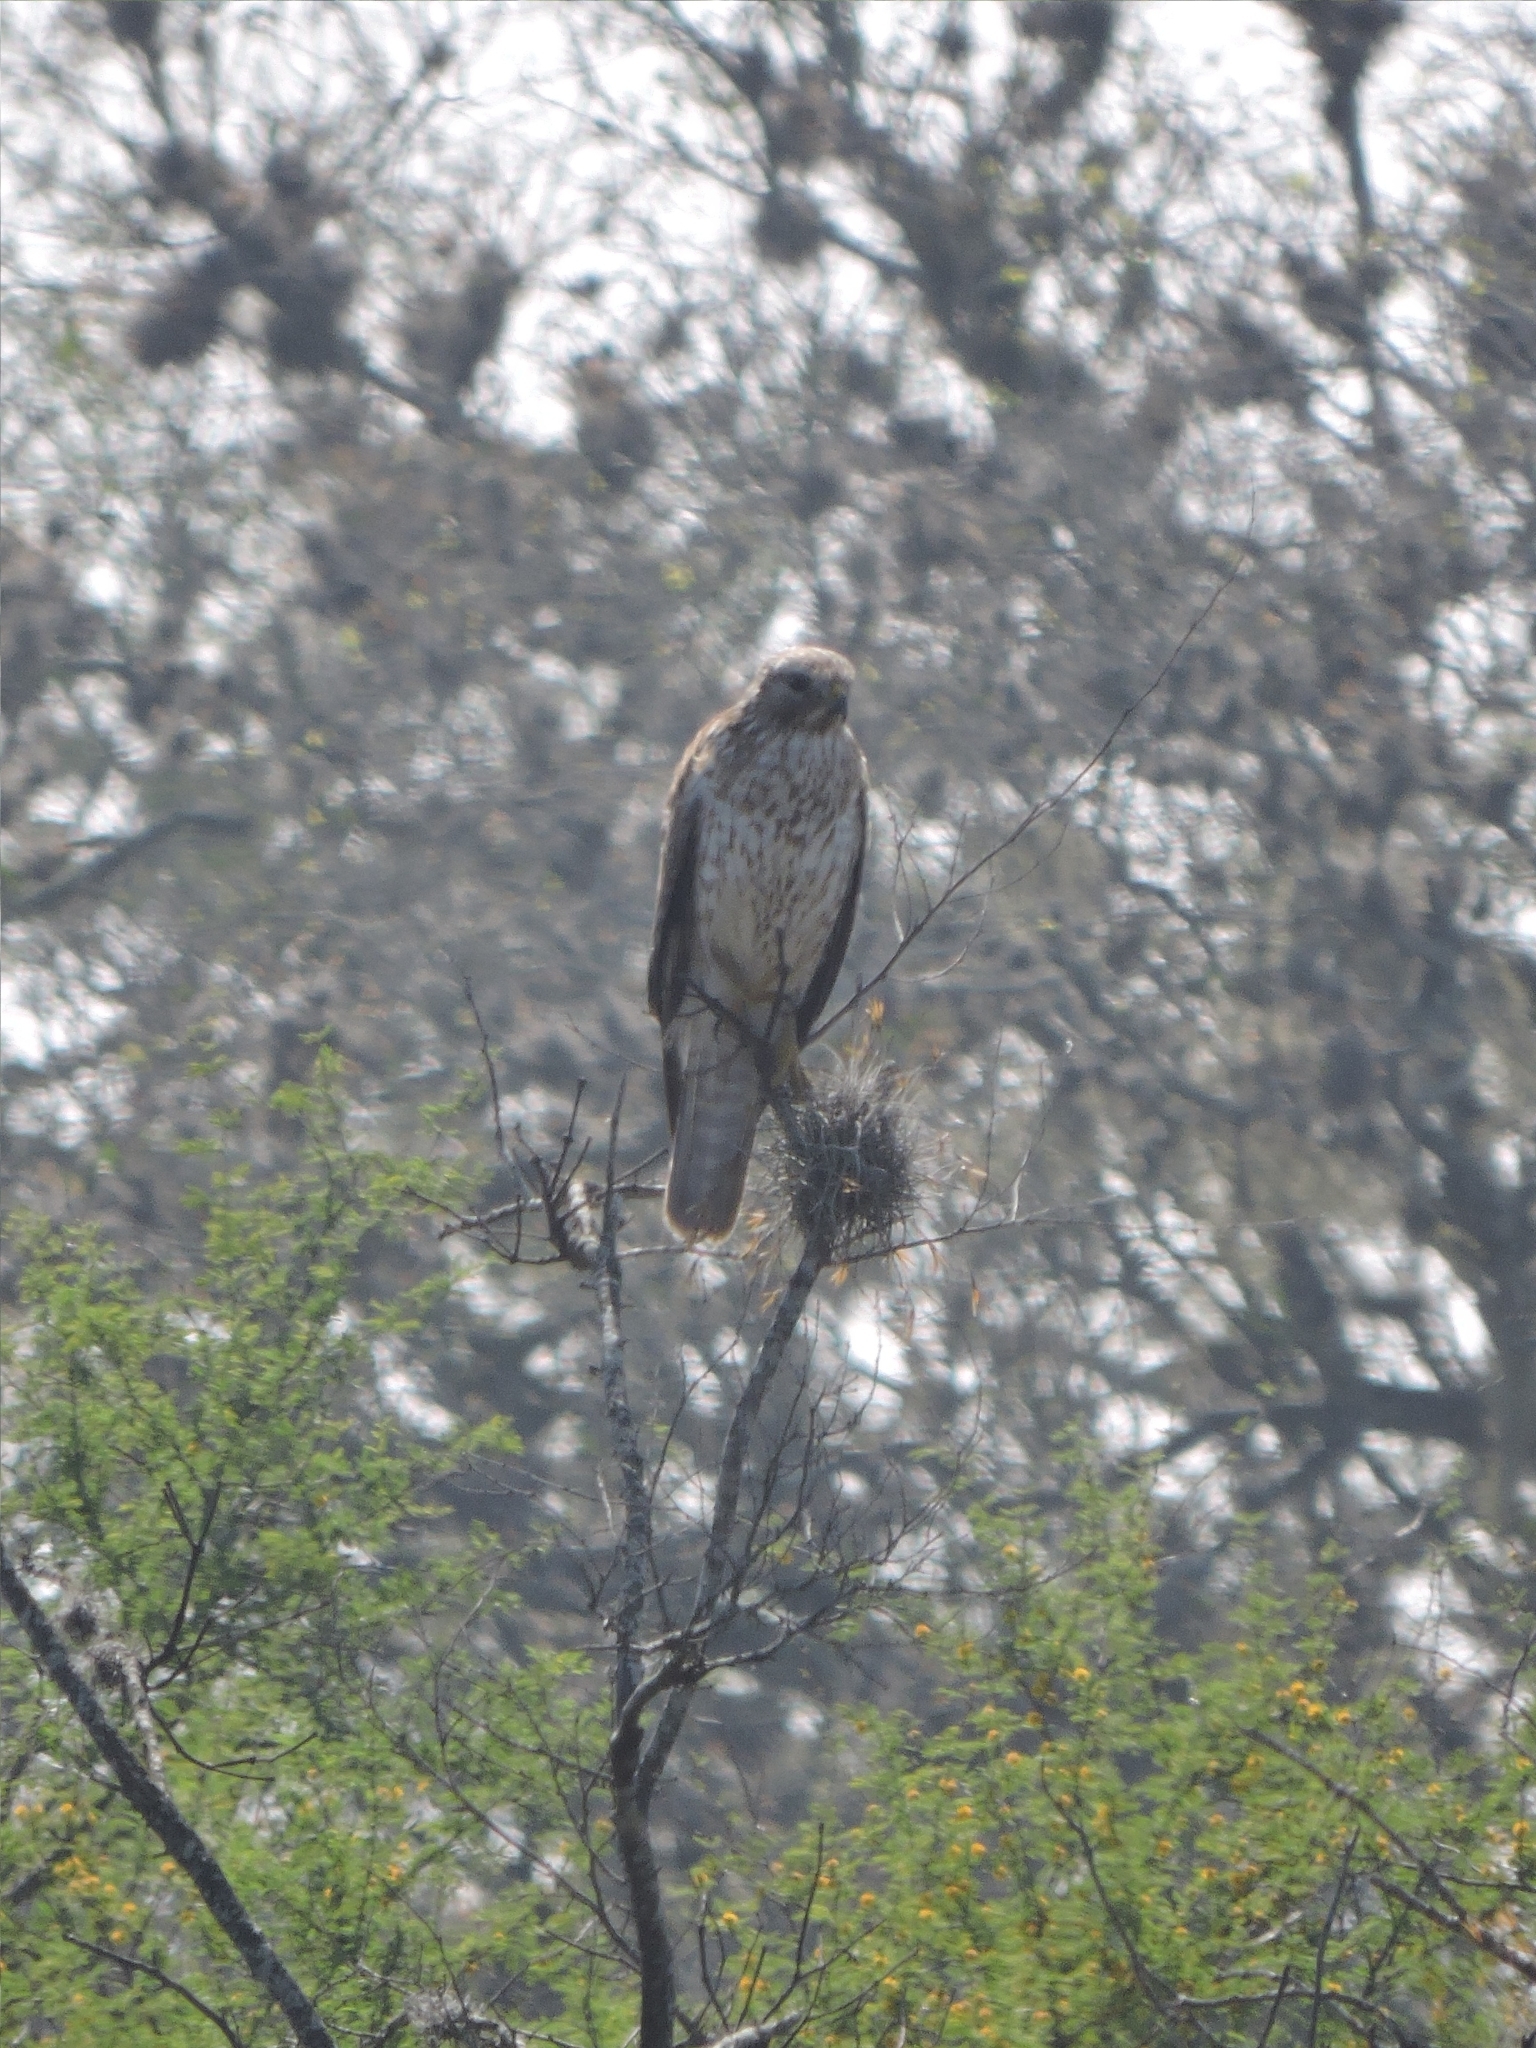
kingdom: Animalia
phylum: Chordata
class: Aves
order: Accipitriformes
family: Accipitridae
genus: Buteo
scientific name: Buteo lineatus
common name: Red-shouldered hawk
